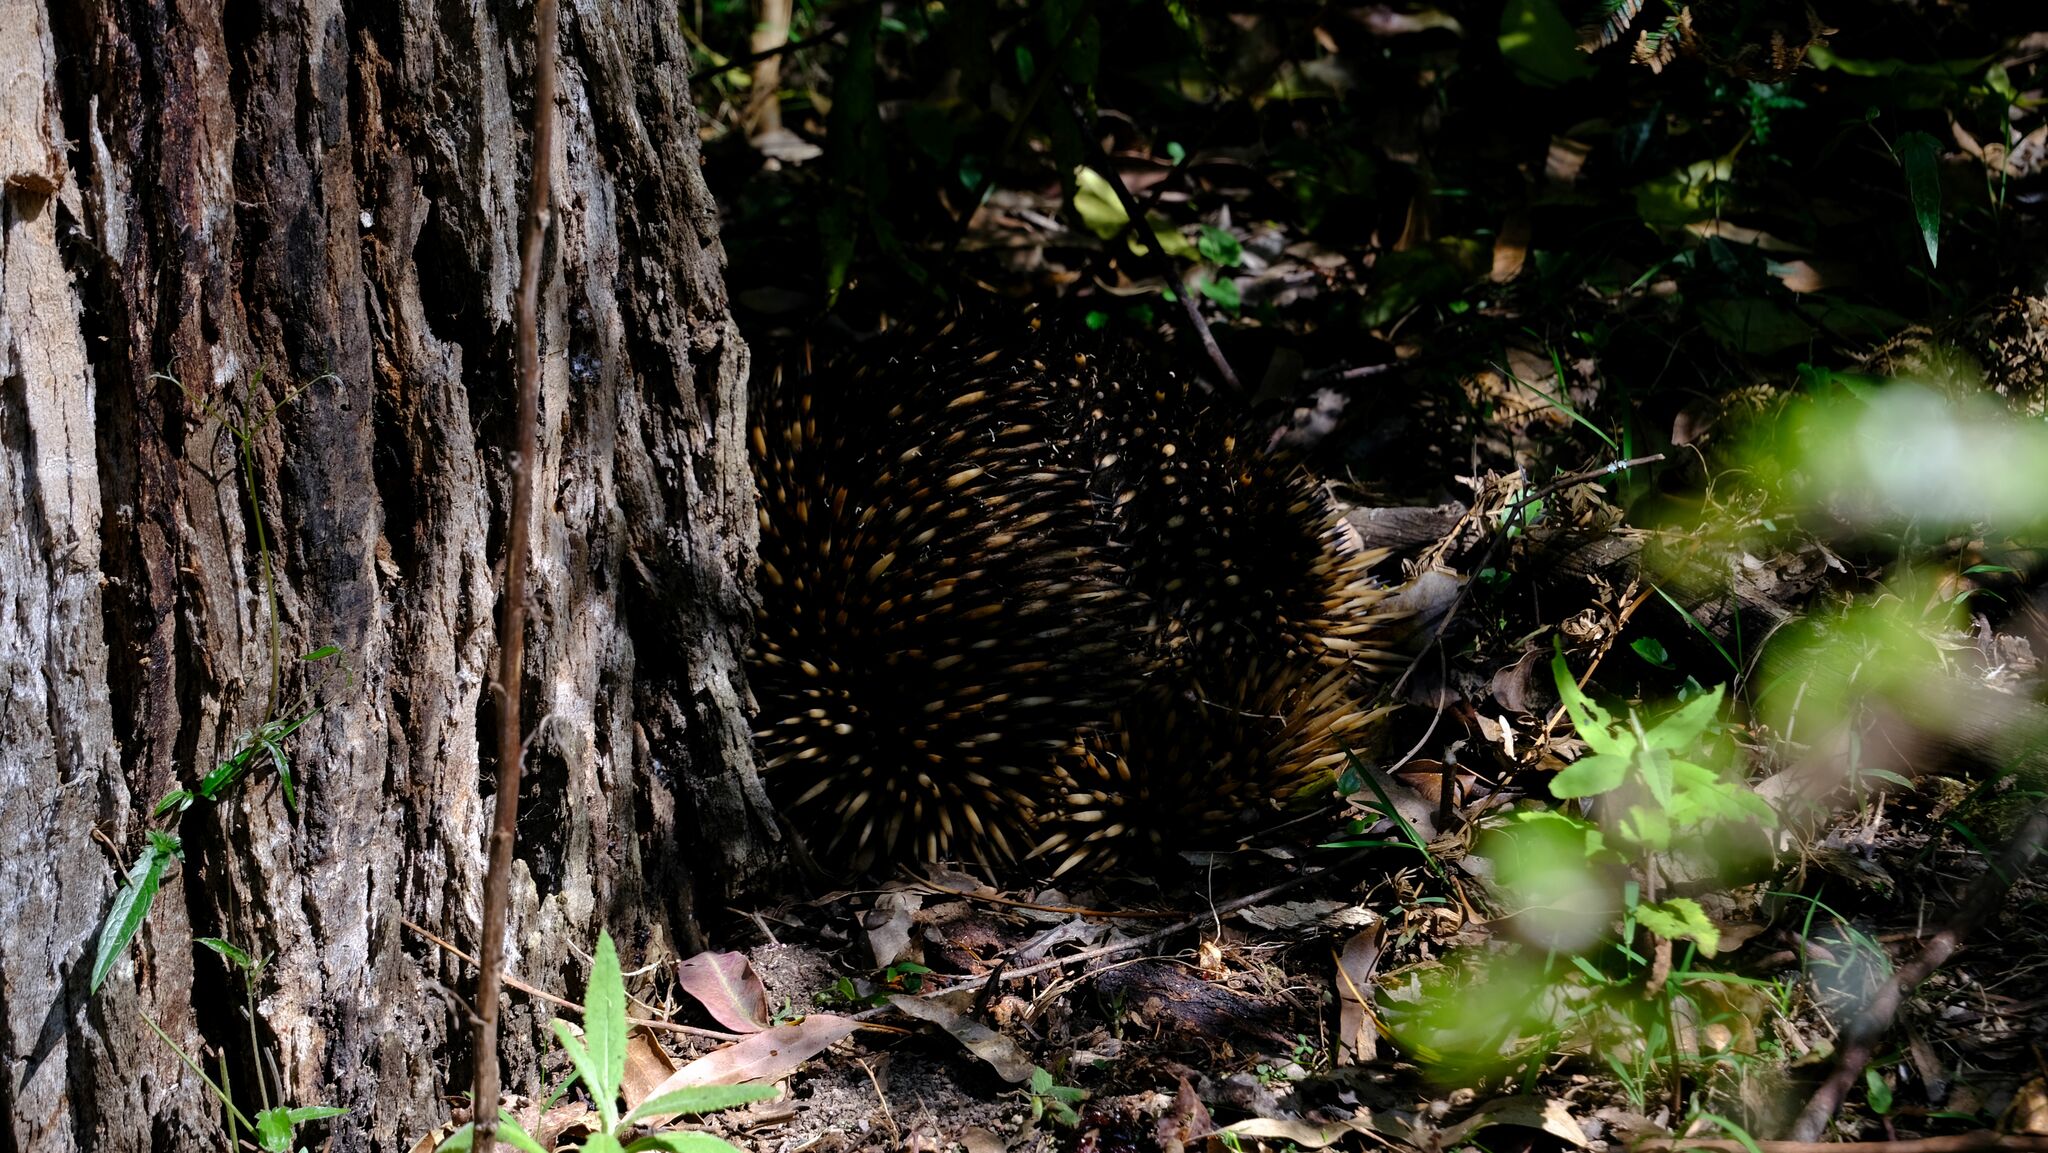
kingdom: Animalia
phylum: Chordata
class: Mammalia
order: Monotremata
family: Tachyglossidae
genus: Tachyglossus
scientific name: Tachyglossus aculeatus
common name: Short-beaked echidna
